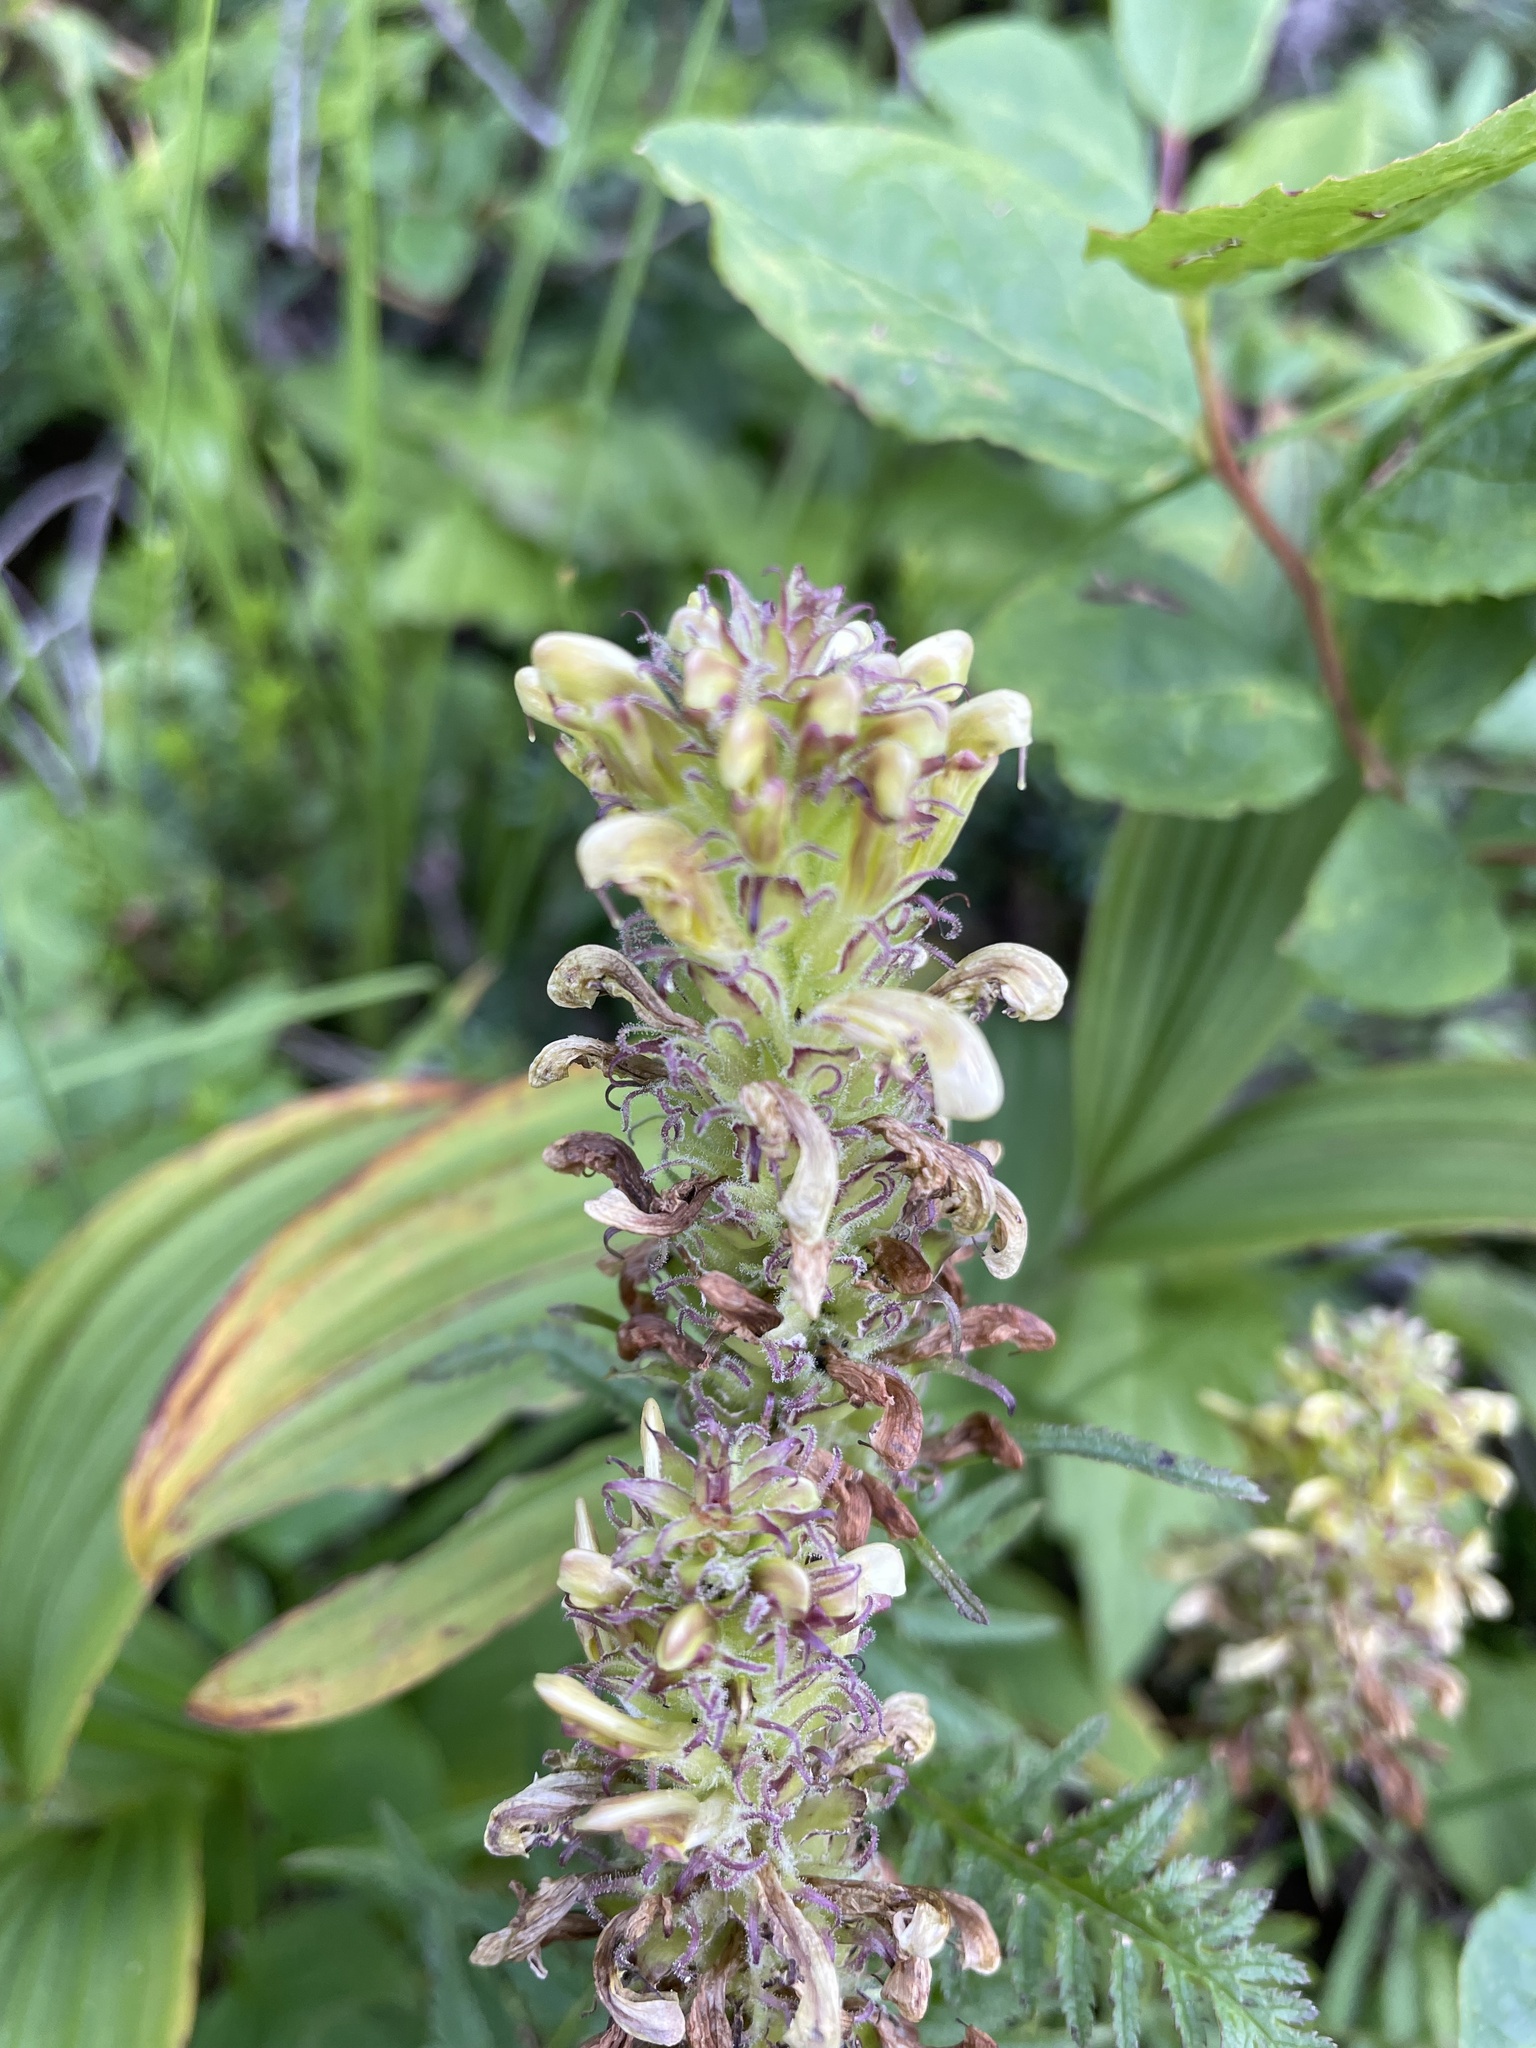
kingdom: Plantae
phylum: Tracheophyta
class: Magnoliopsida
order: Lamiales
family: Orobanchaceae
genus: Pedicularis
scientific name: Pedicularis bracteosa
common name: Bracted lousewort
